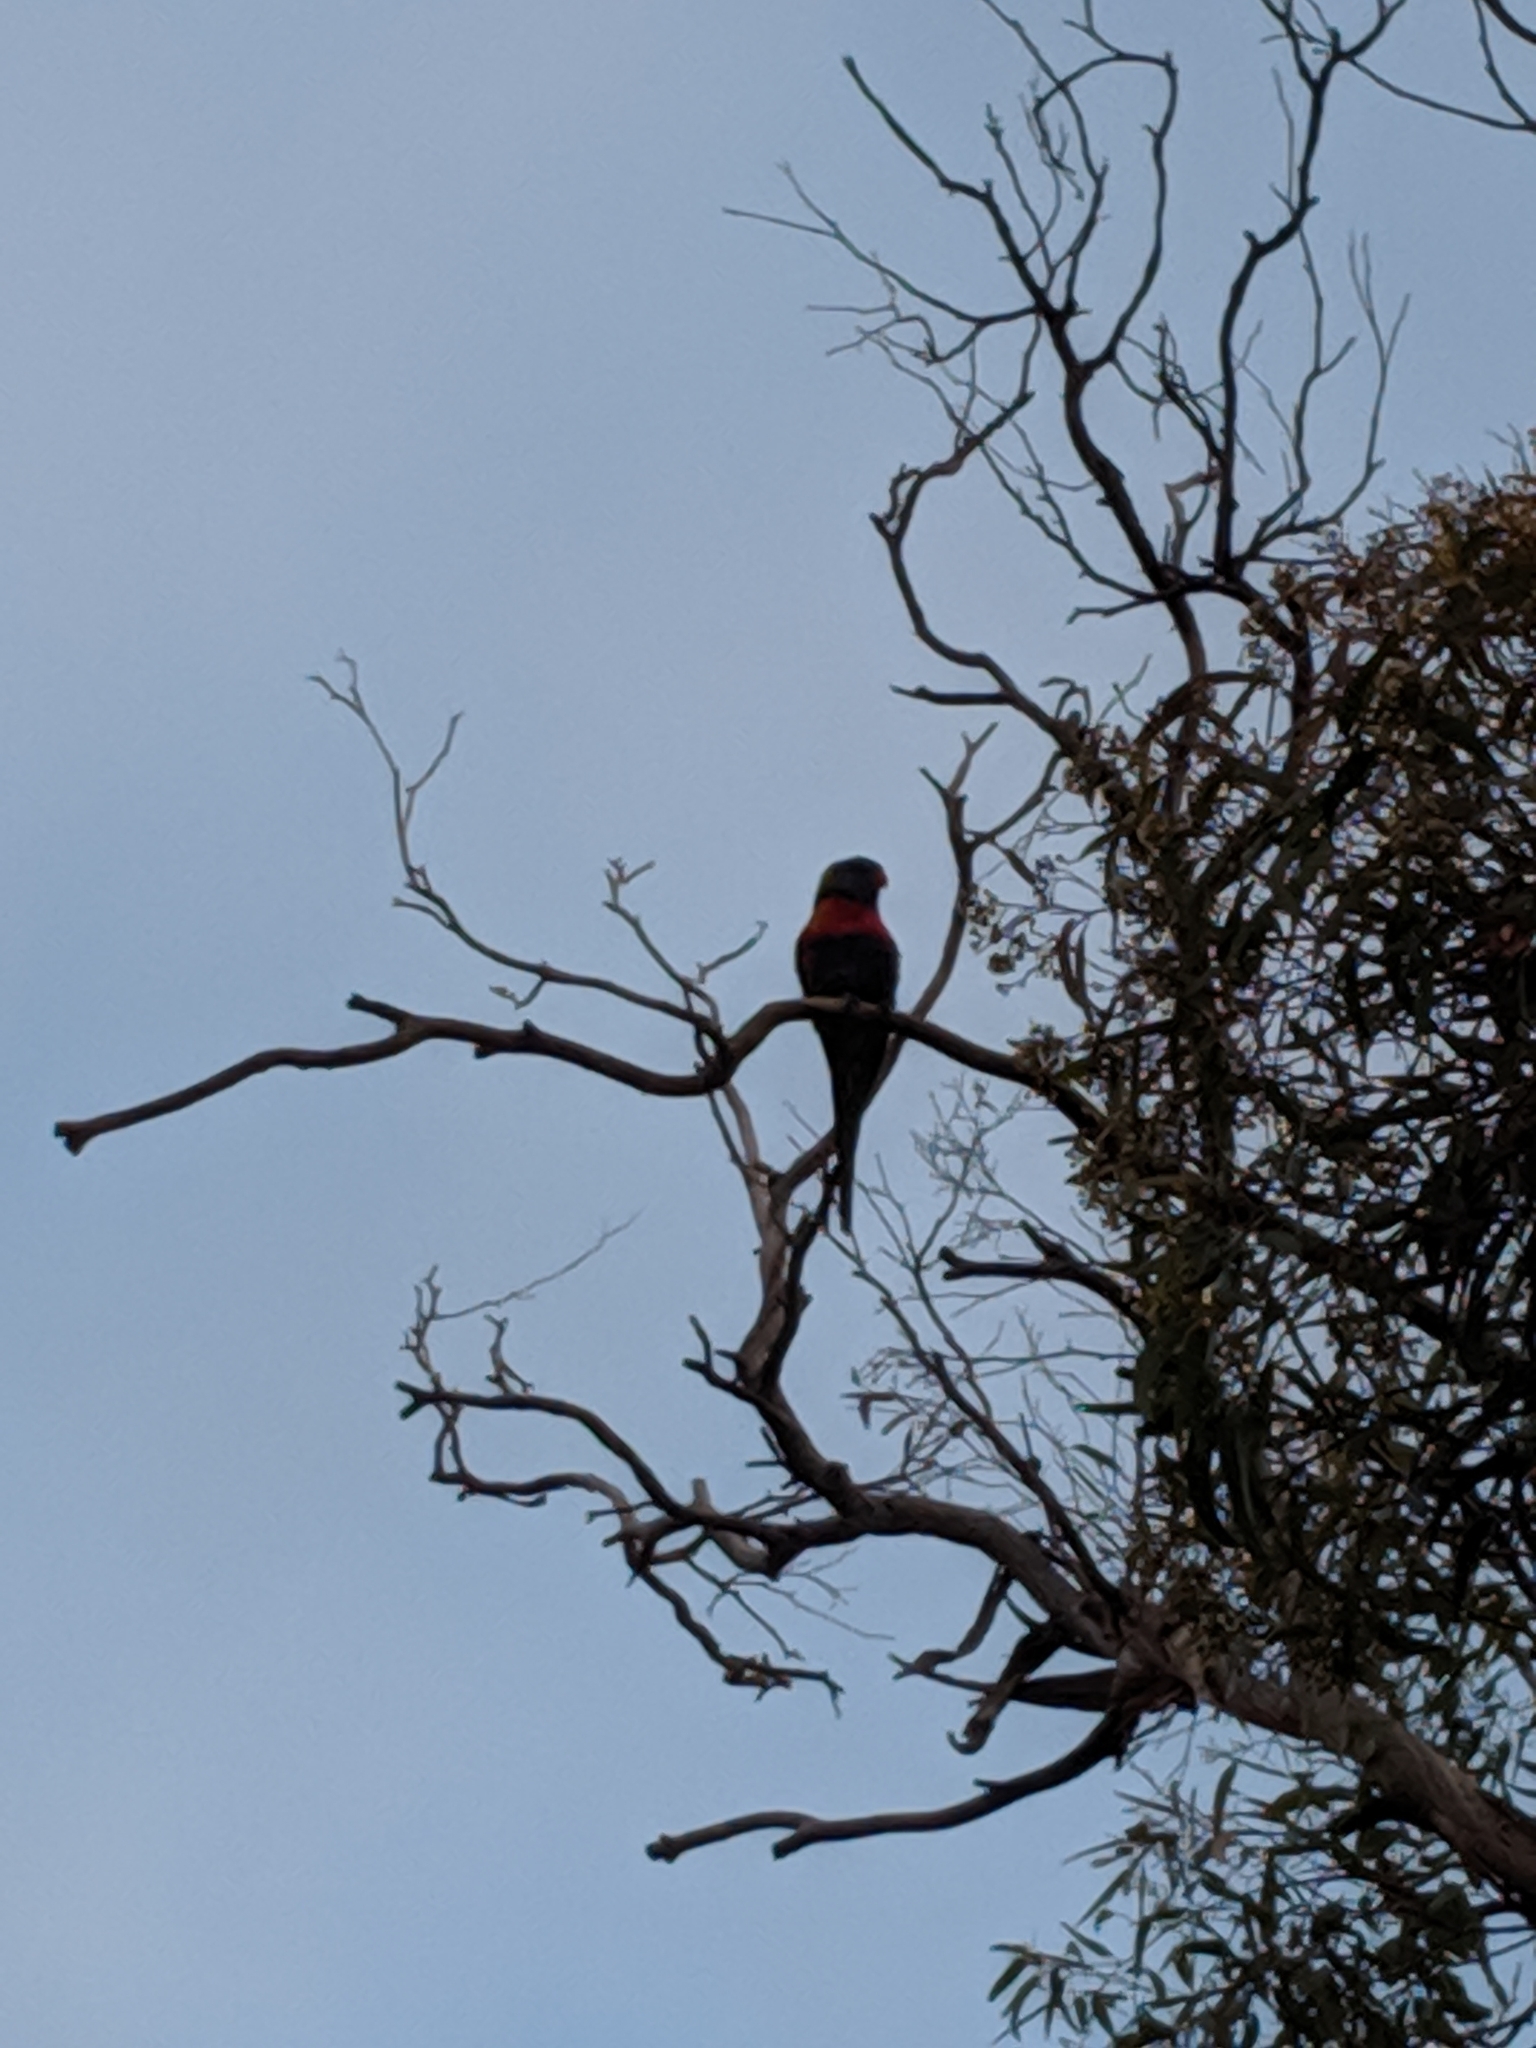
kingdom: Animalia
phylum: Chordata
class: Aves
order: Psittaciformes
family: Psittacidae
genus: Trichoglossus
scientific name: Trichoglossus haematodus
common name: Coconut lorikeet
